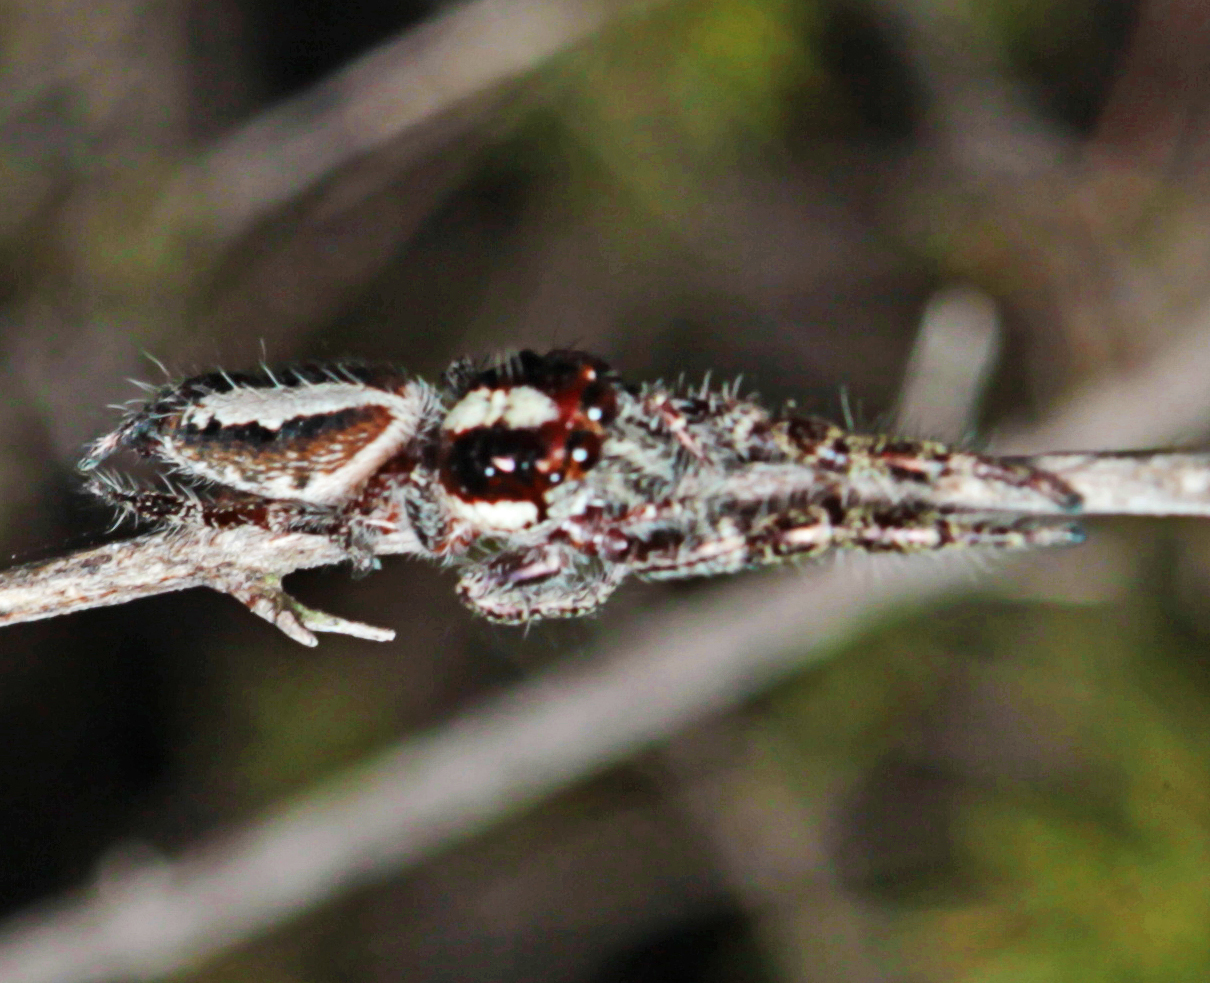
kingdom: Animalia
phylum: Arthropoda
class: Arachnida
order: Araneae
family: Salticidae
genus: Sandalodes
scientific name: Sandalodes bipenicillatus
